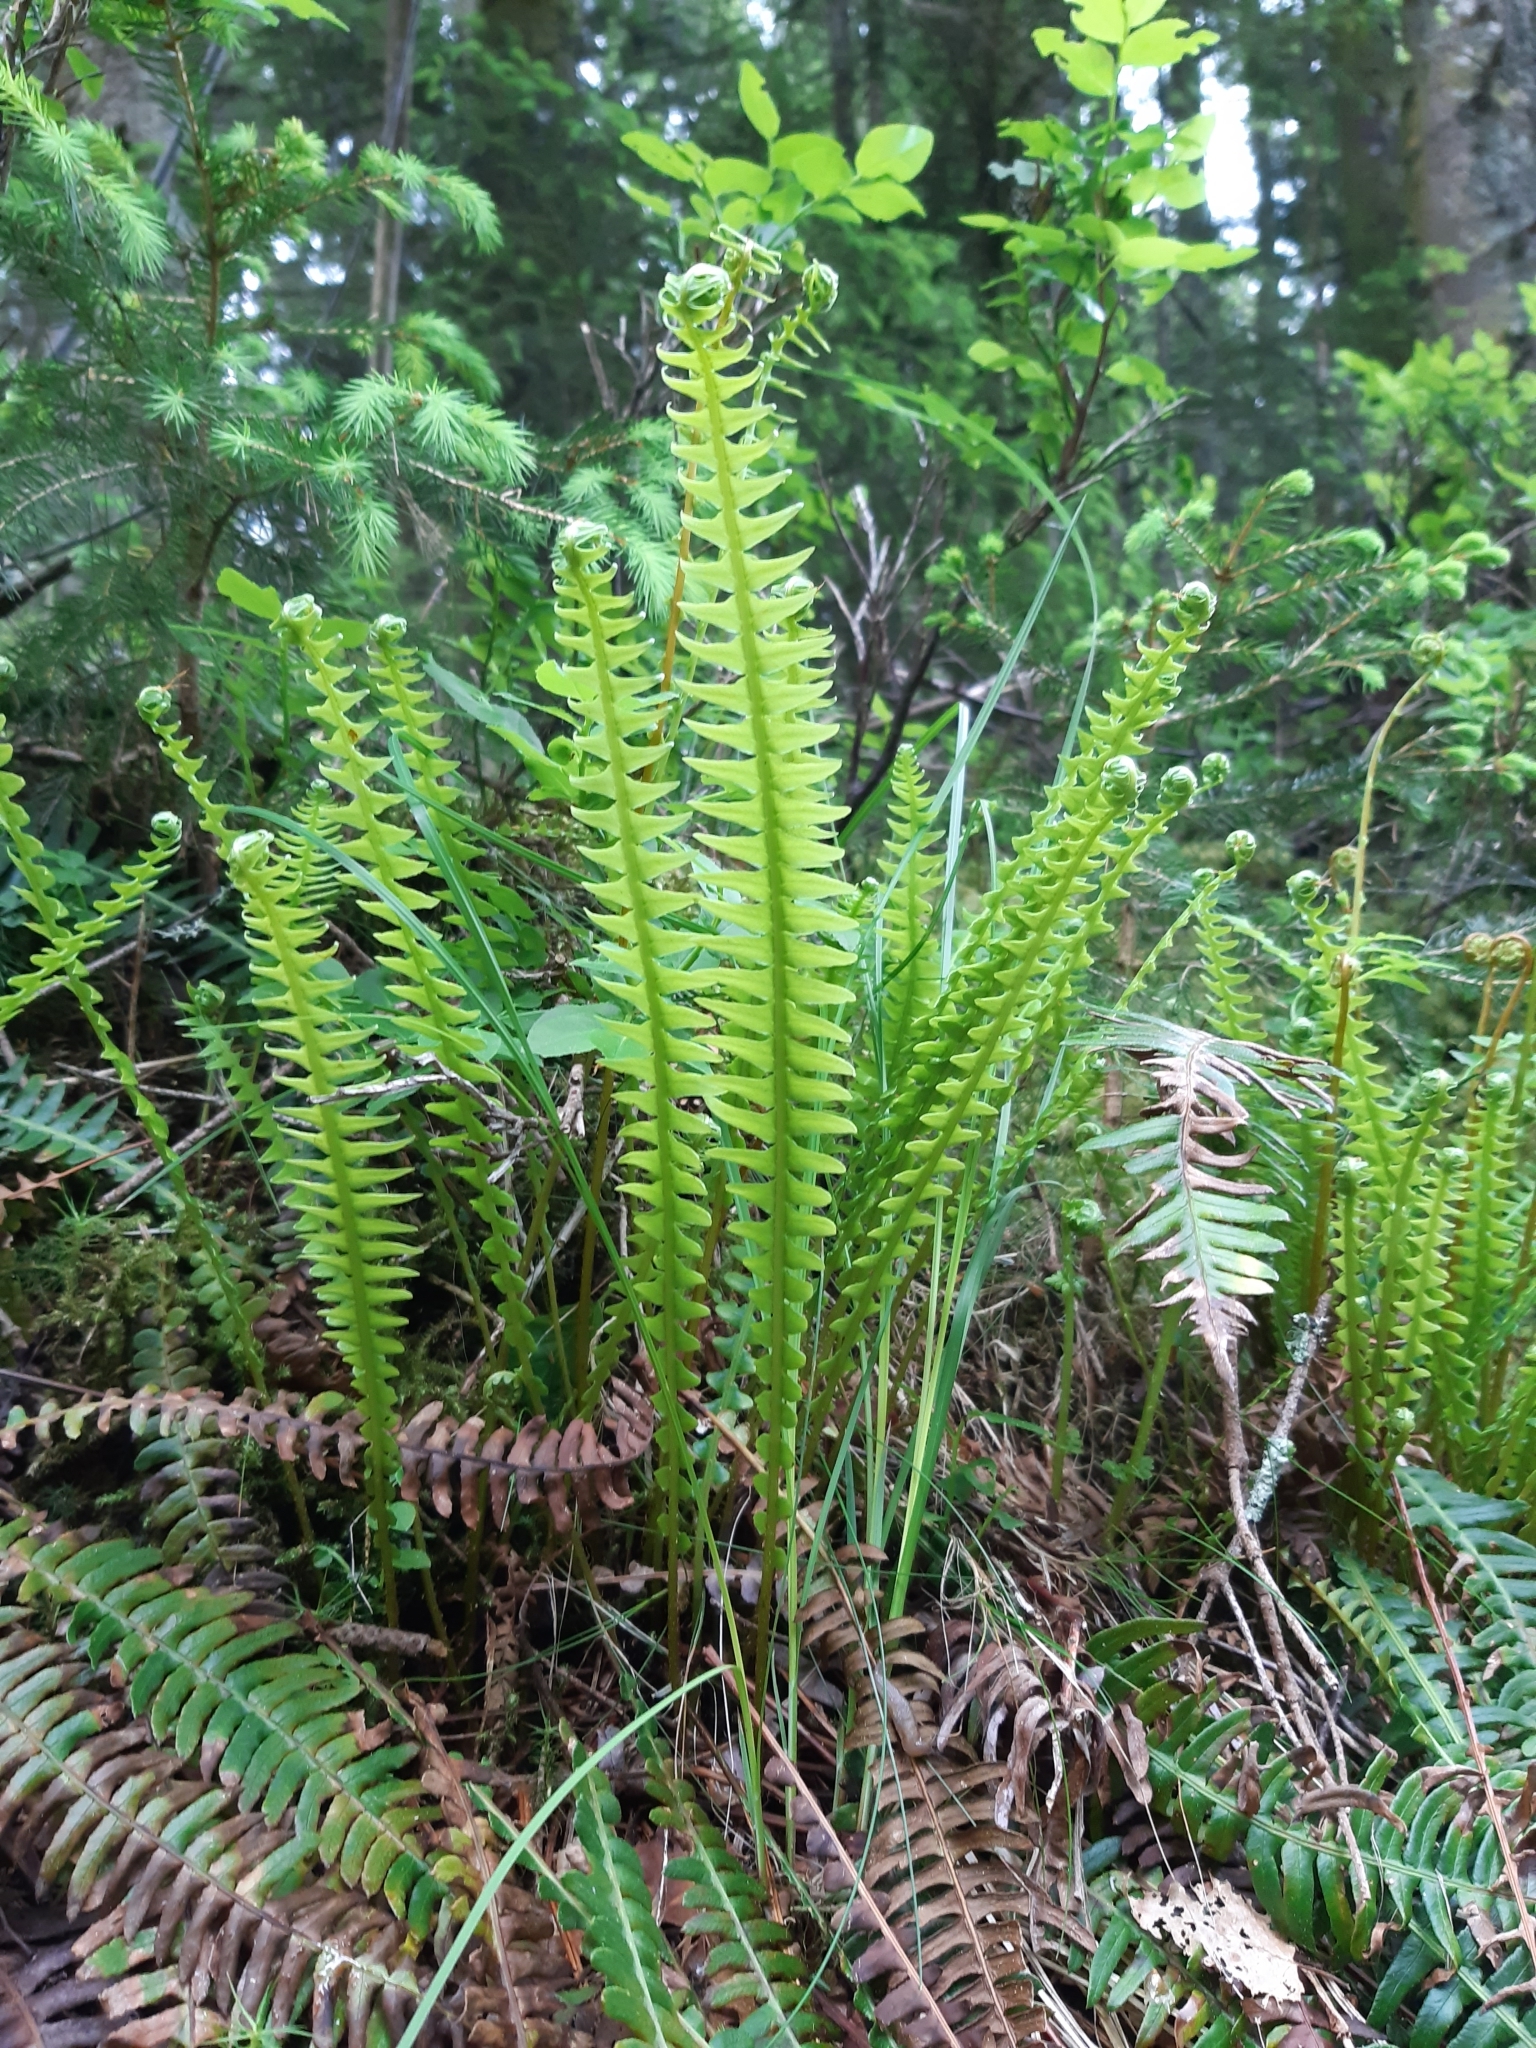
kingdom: Plantae
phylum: Tracheophyta
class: Polypodiopsida
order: Polypodiales
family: Blechnaceae
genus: Struthiopteris
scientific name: Struthiopteris spicant
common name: Deer fern
